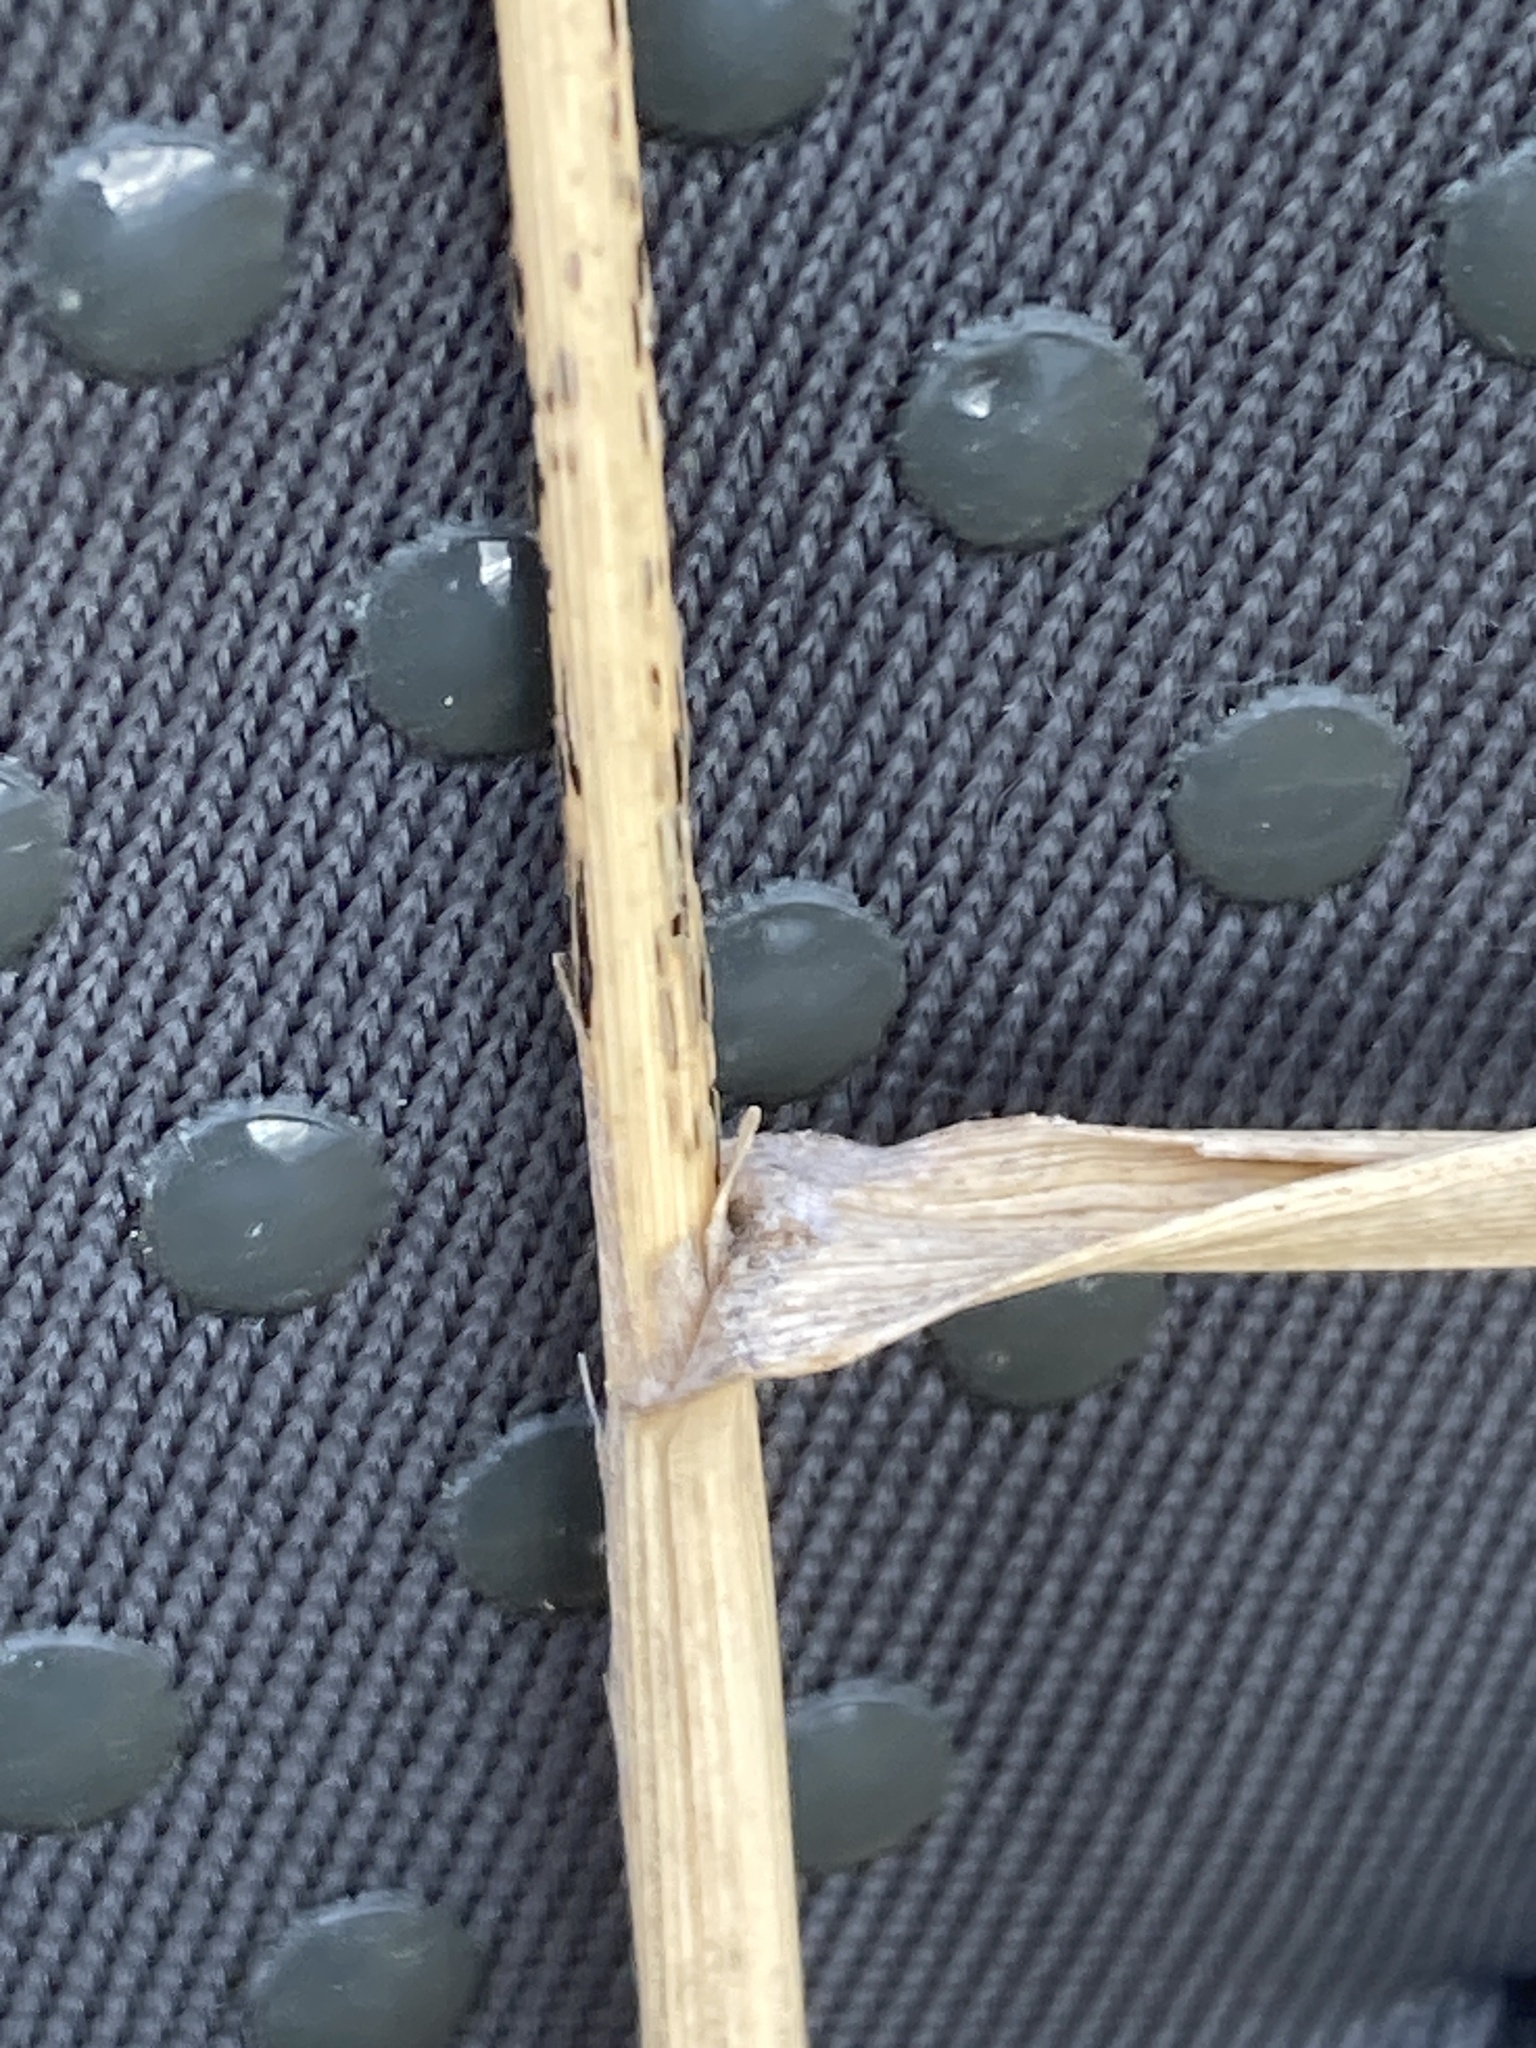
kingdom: Plantae
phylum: Tracheophyta
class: Liliopsida
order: Poales
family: Poaceae
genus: Calamagrostis
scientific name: Calamagrostis epigejos
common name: Wood small-reed
